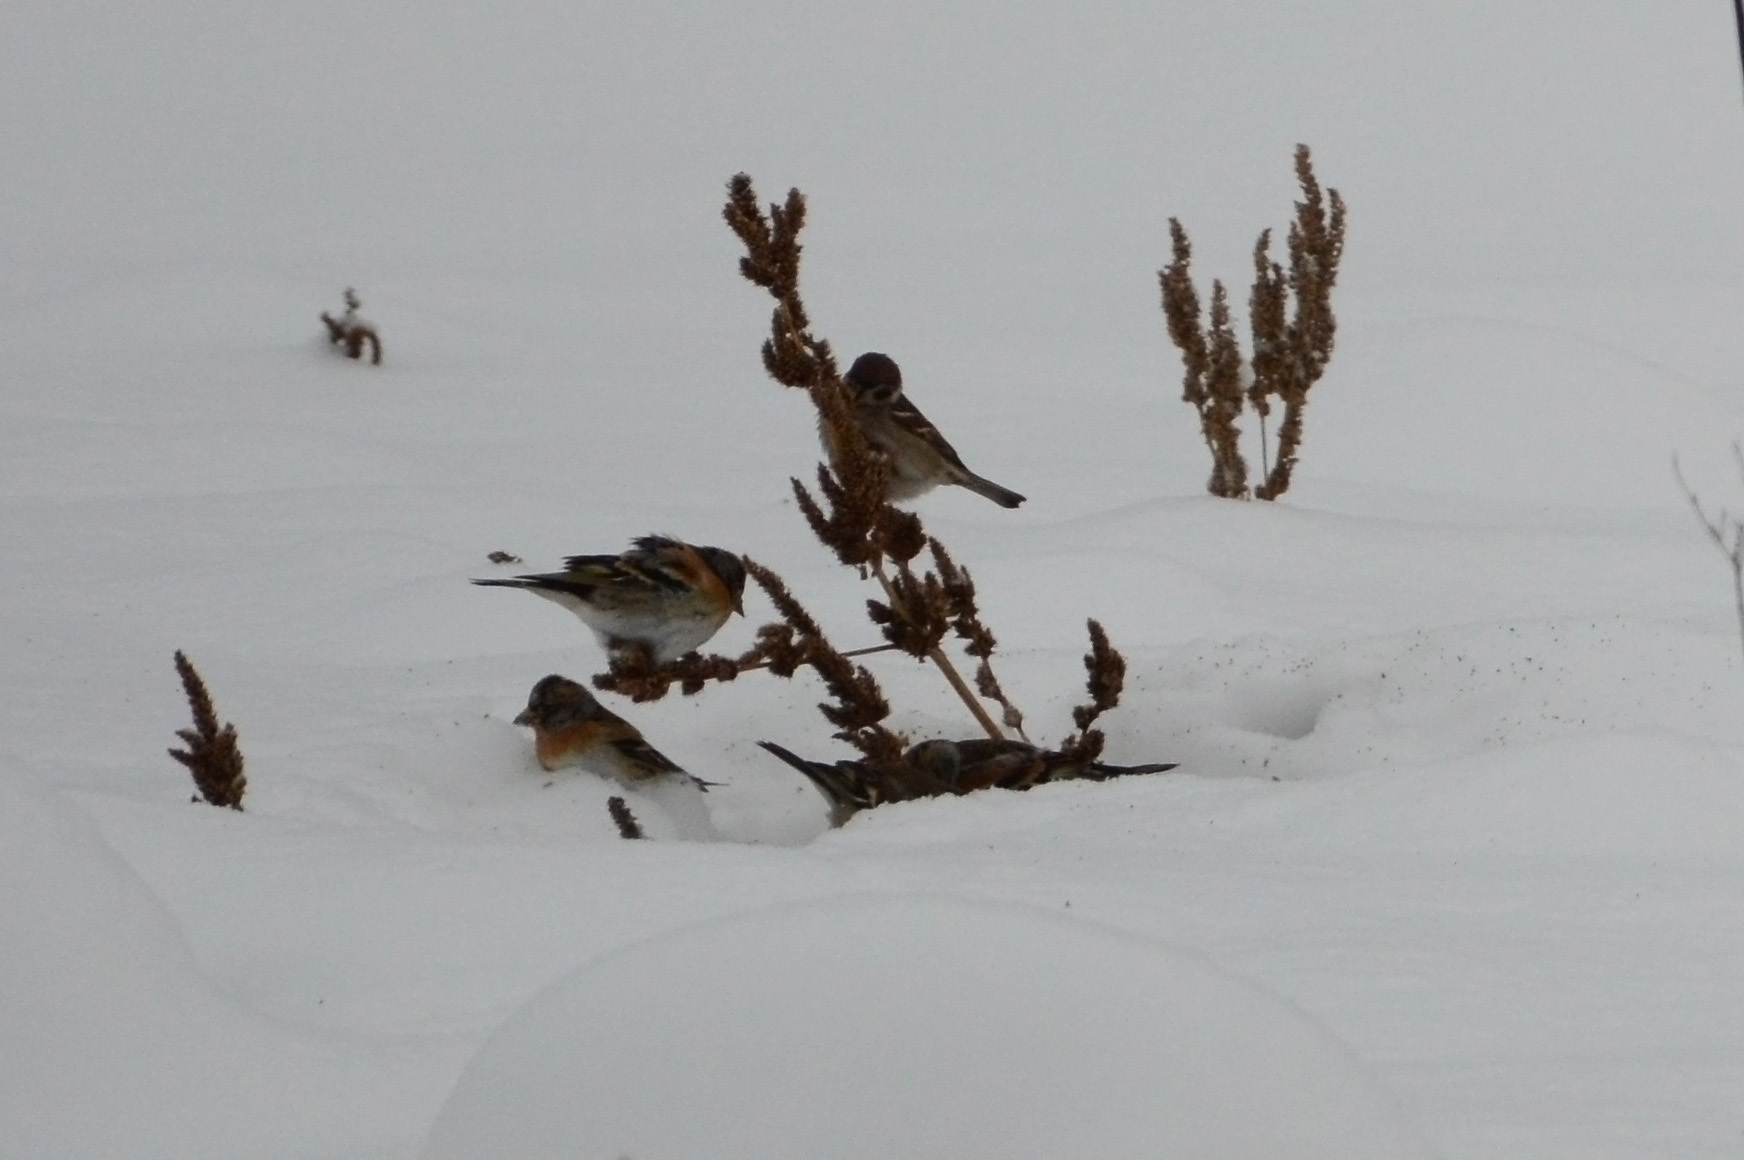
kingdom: Animalia
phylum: Chordata
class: Aves
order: Passeriformes
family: Fringillidae
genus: Fringilla
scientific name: Fringilla montifringilla
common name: Brambling
